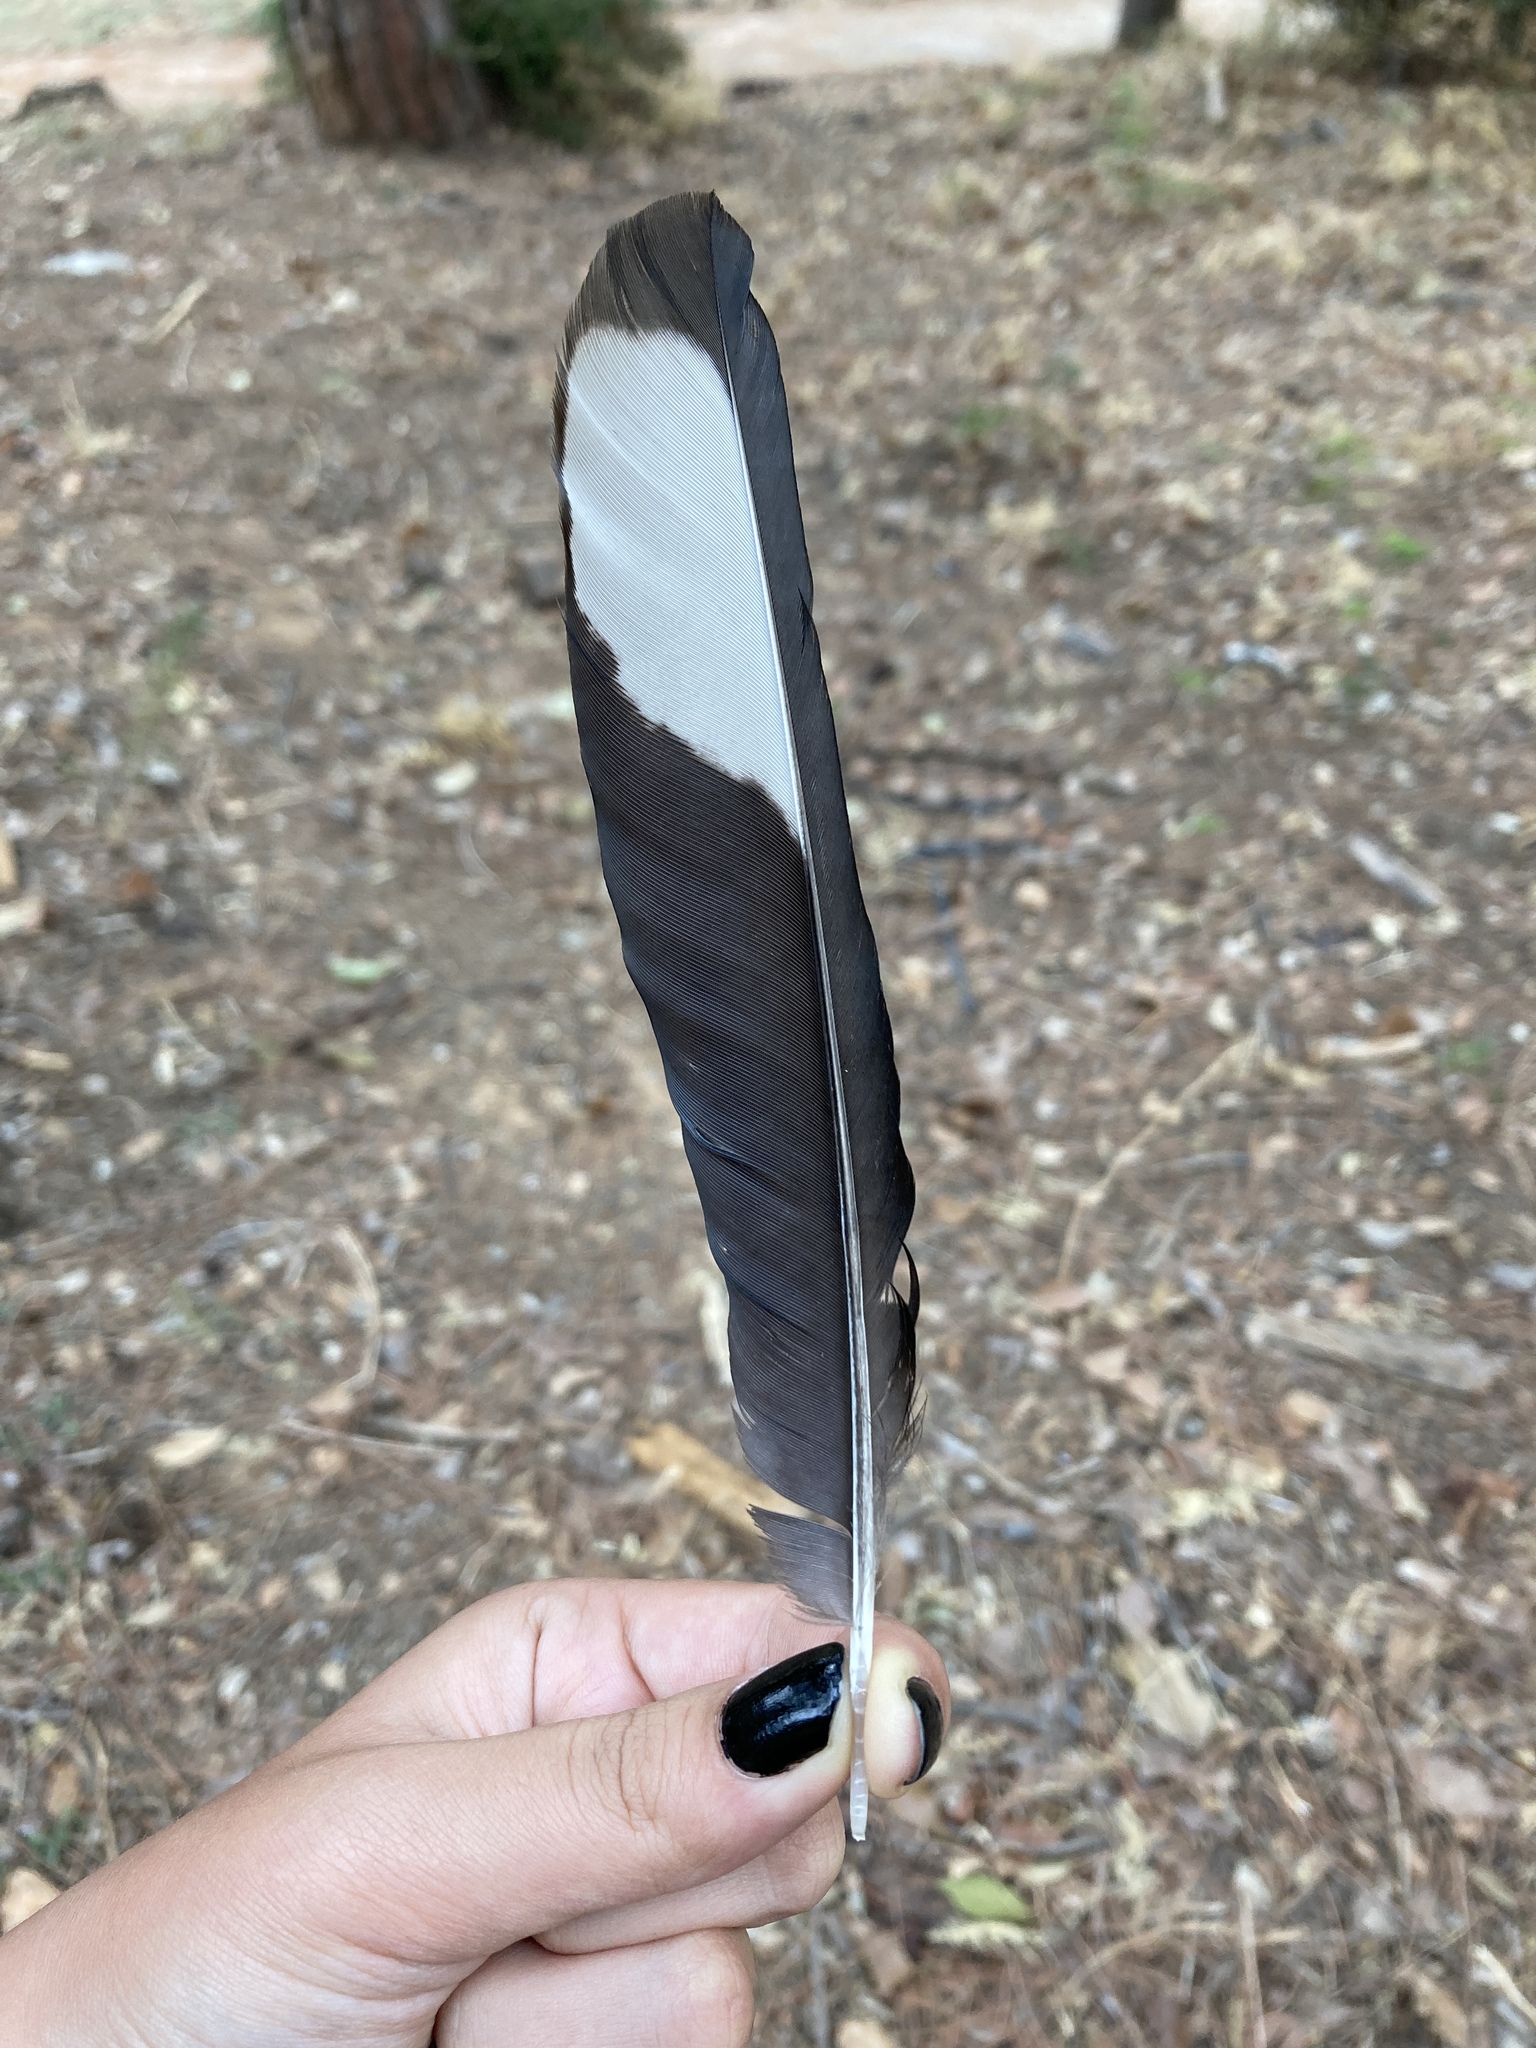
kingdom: Animalia
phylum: Chordata
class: Aves
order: Passeriformes
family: Corvidae
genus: Pica
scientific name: Pica pica
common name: Eurasian magpie
